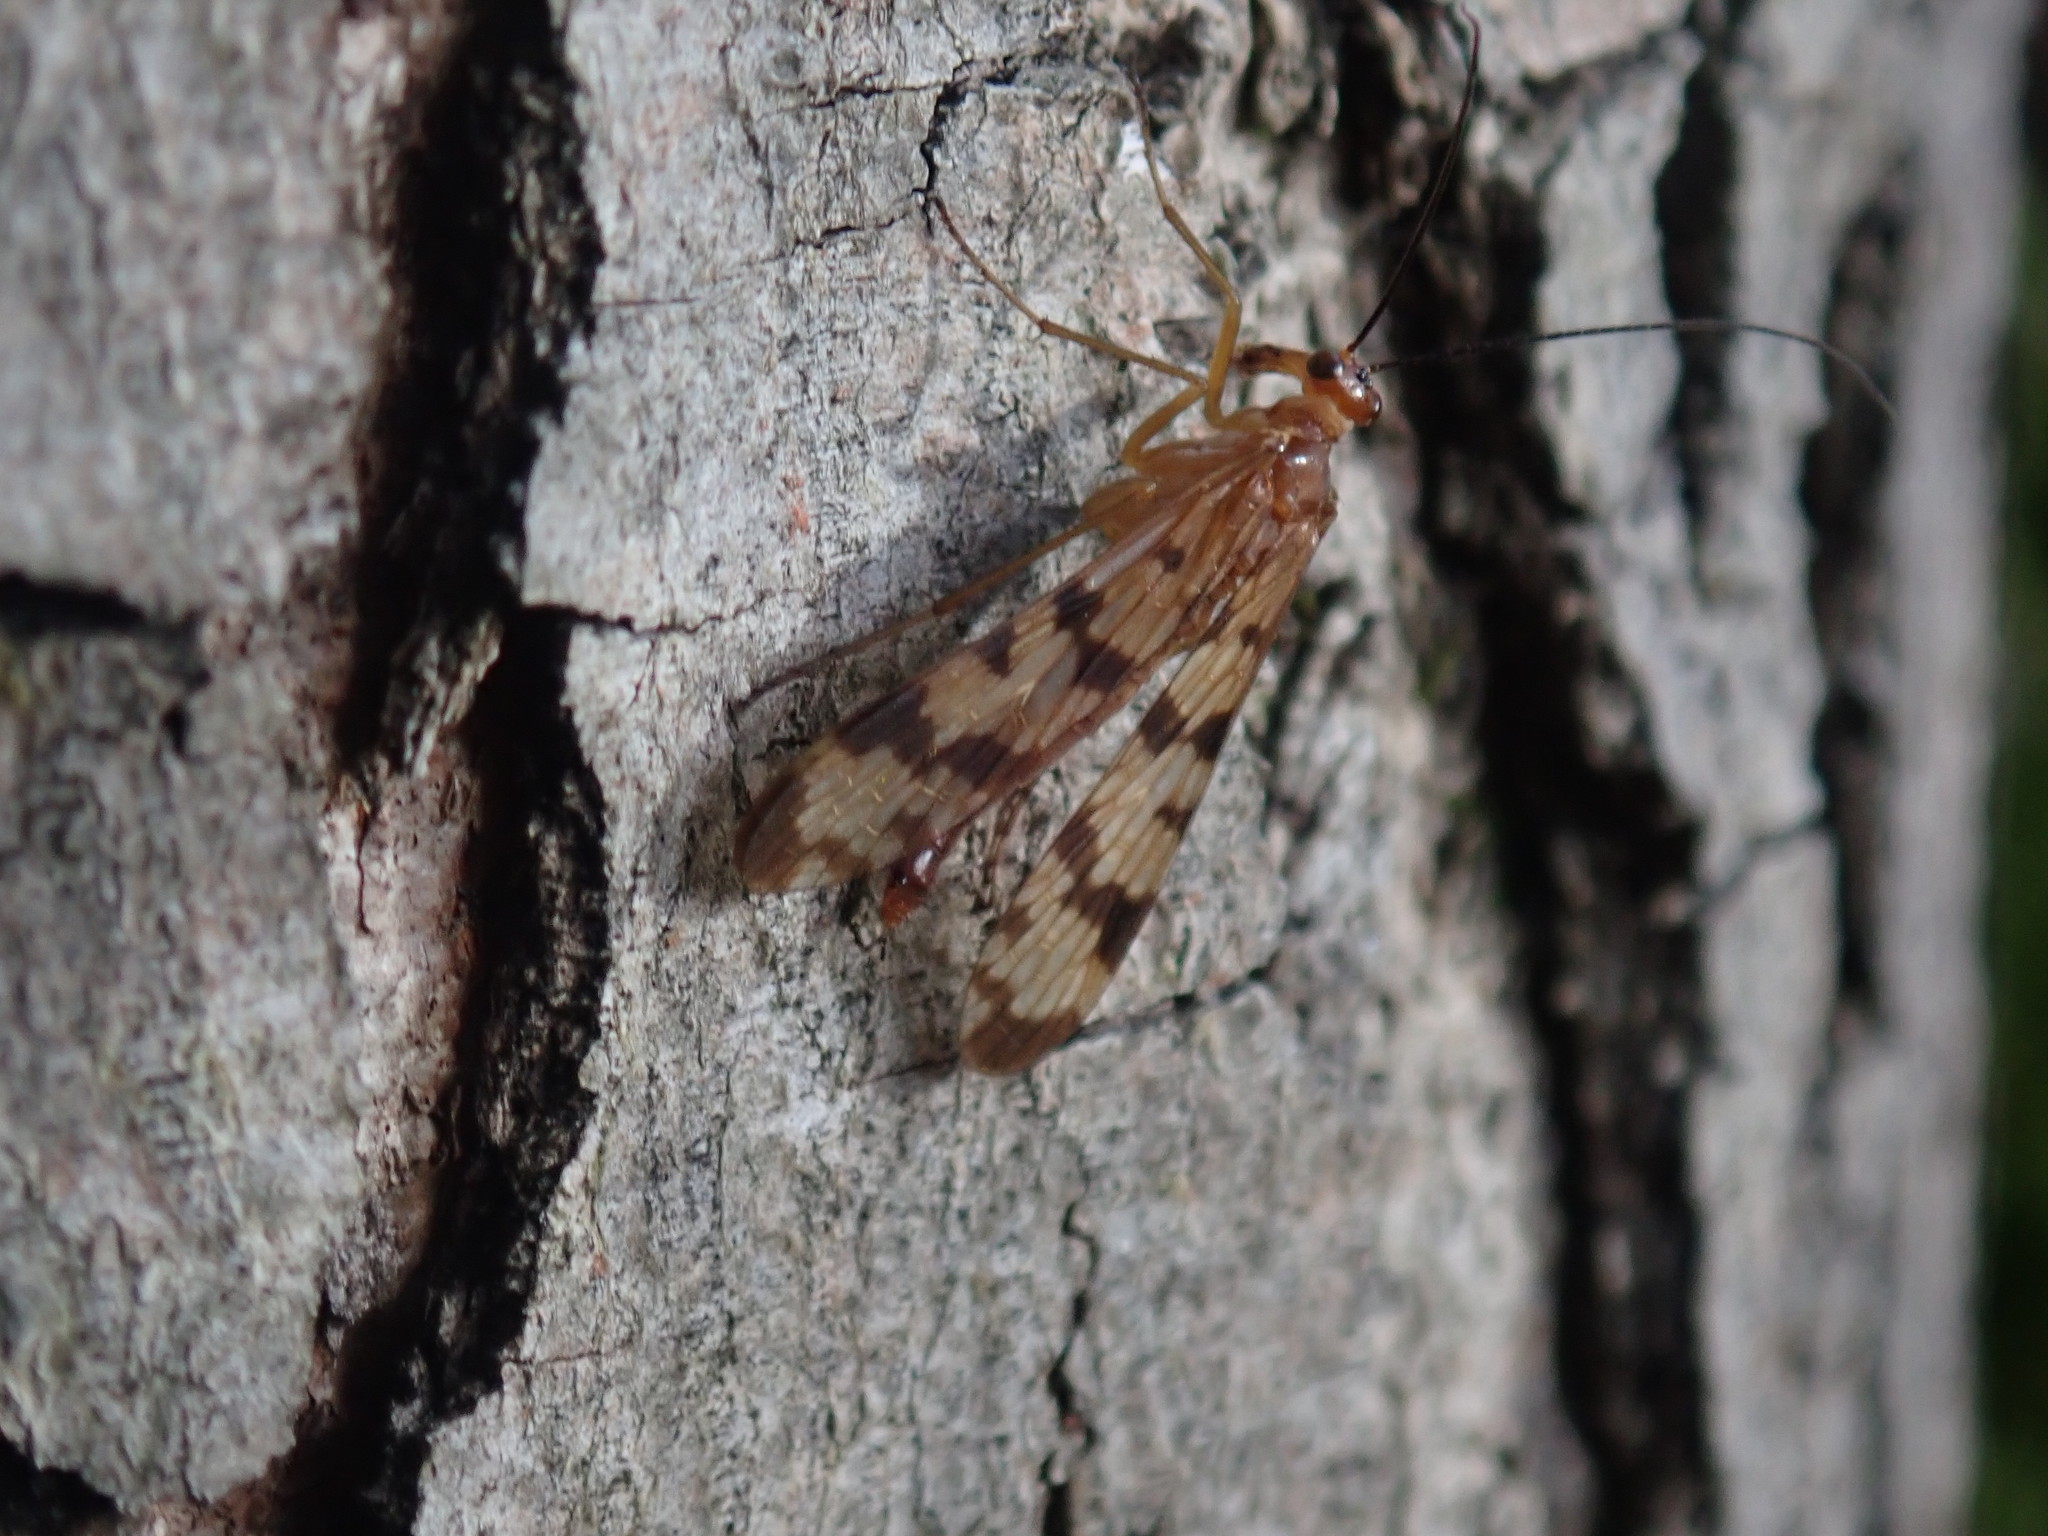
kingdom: Animalia
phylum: Arthropoda
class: Insecta
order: Mecoptera
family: Panorpidae
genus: Panorpa
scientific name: Panorpa subfurcata
